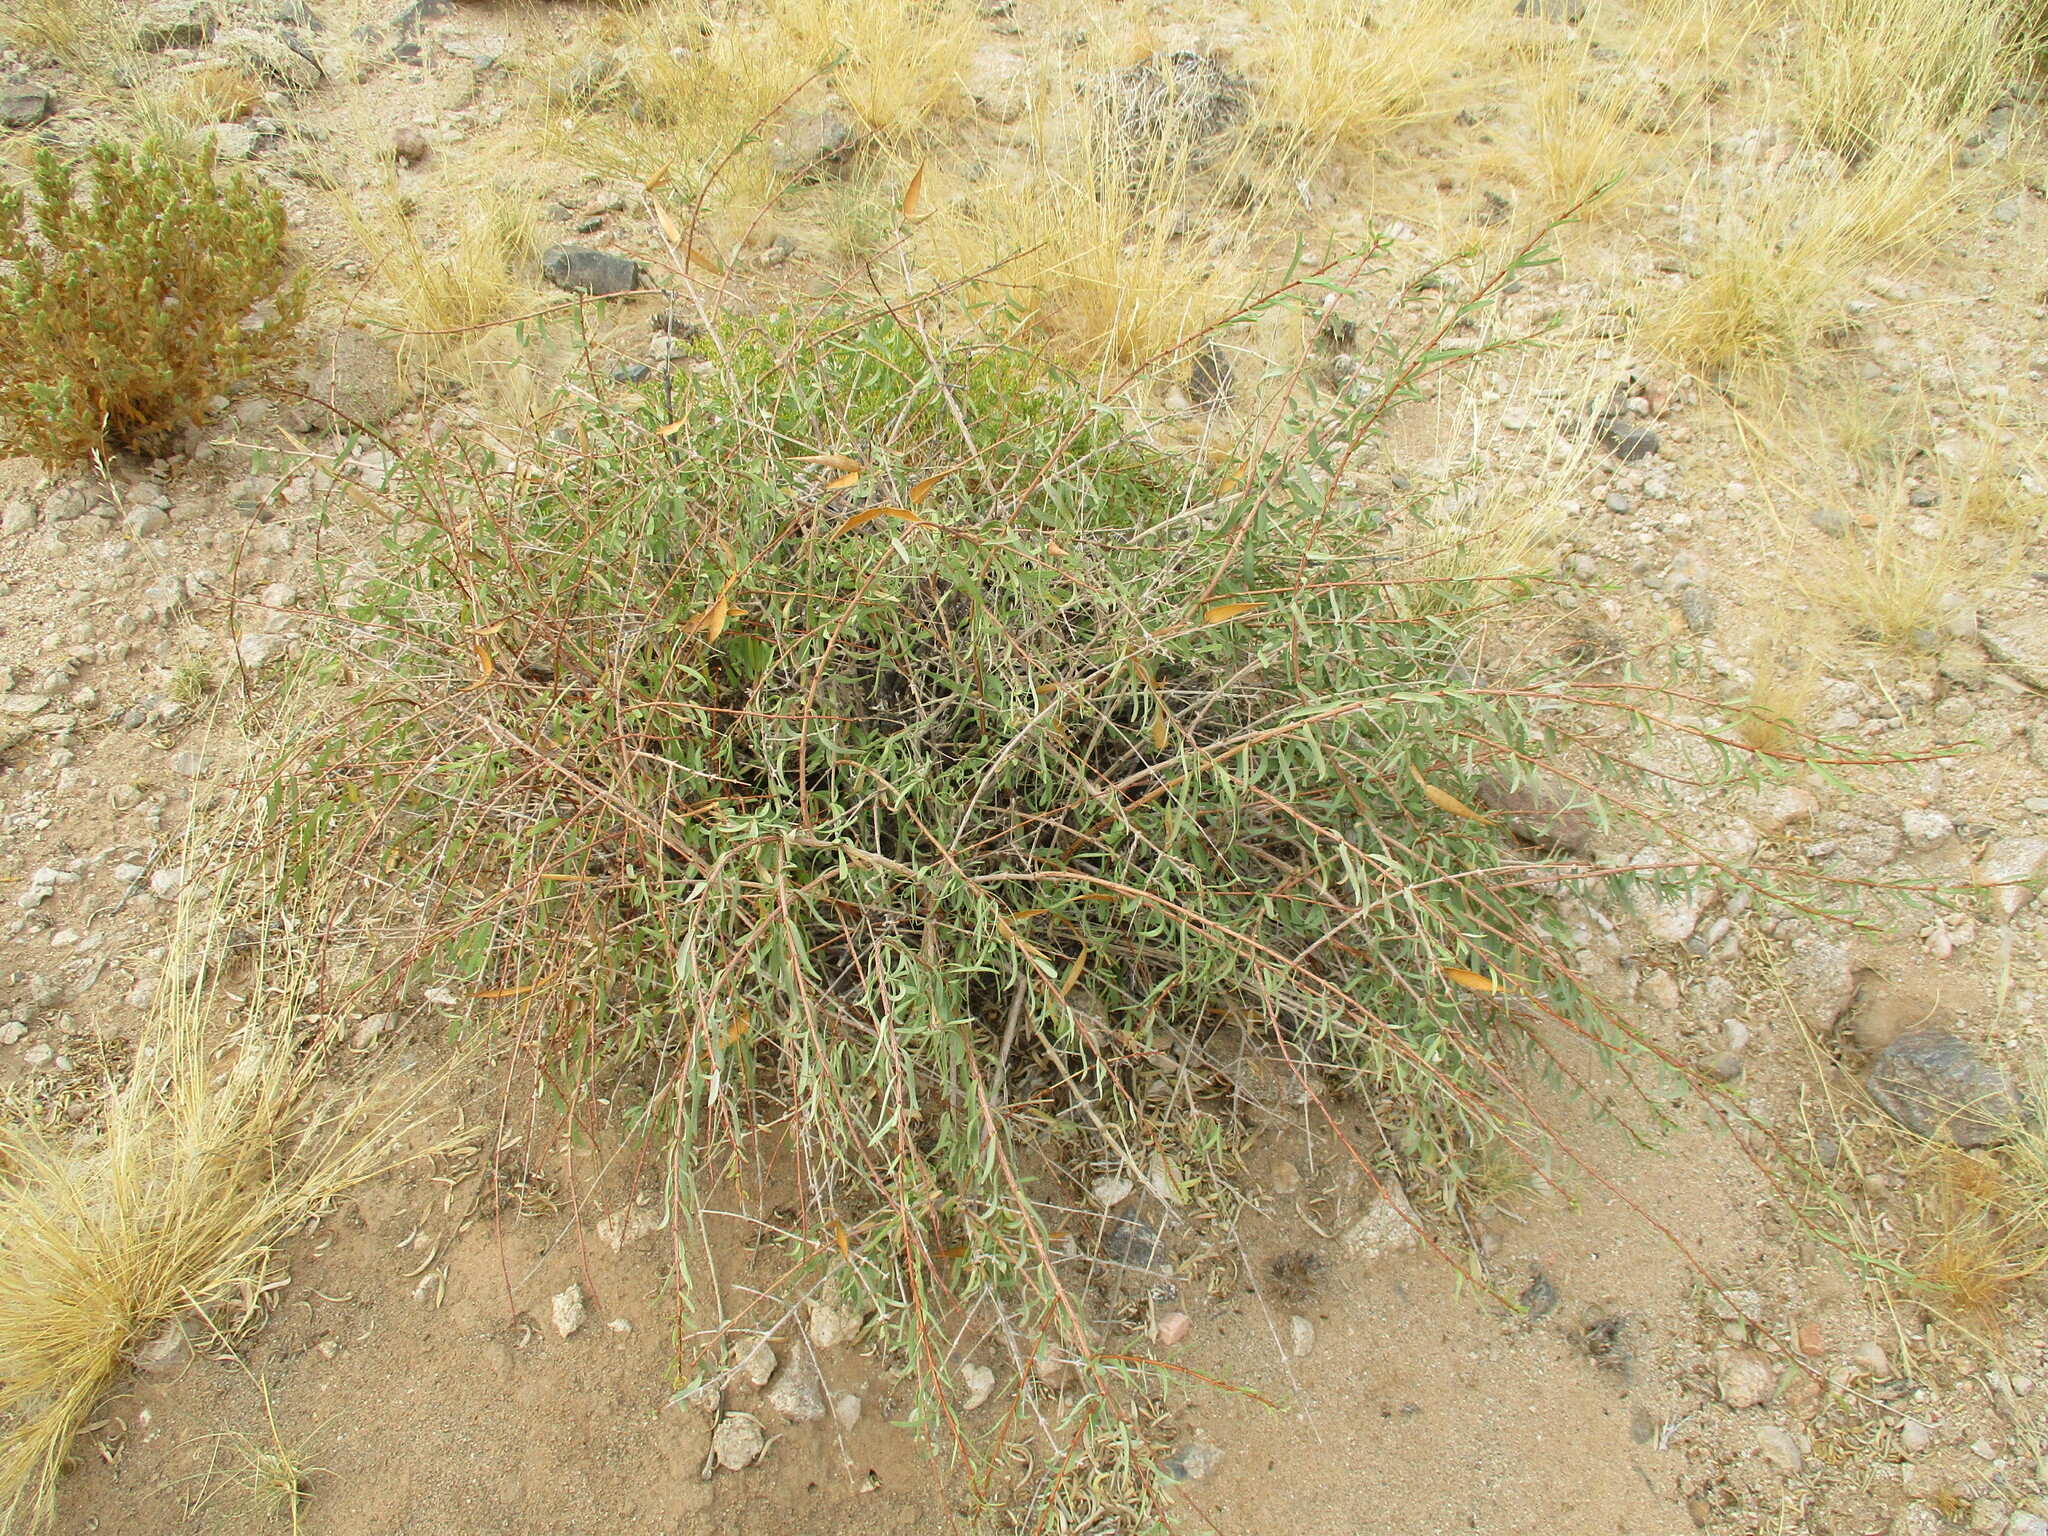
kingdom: Plantae
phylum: Tracheophyta
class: Magnoliopsida
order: Gentianales
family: Apocynaceae
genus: Cryptolepis
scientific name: Cryptolepis decidua
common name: Jackalplant
